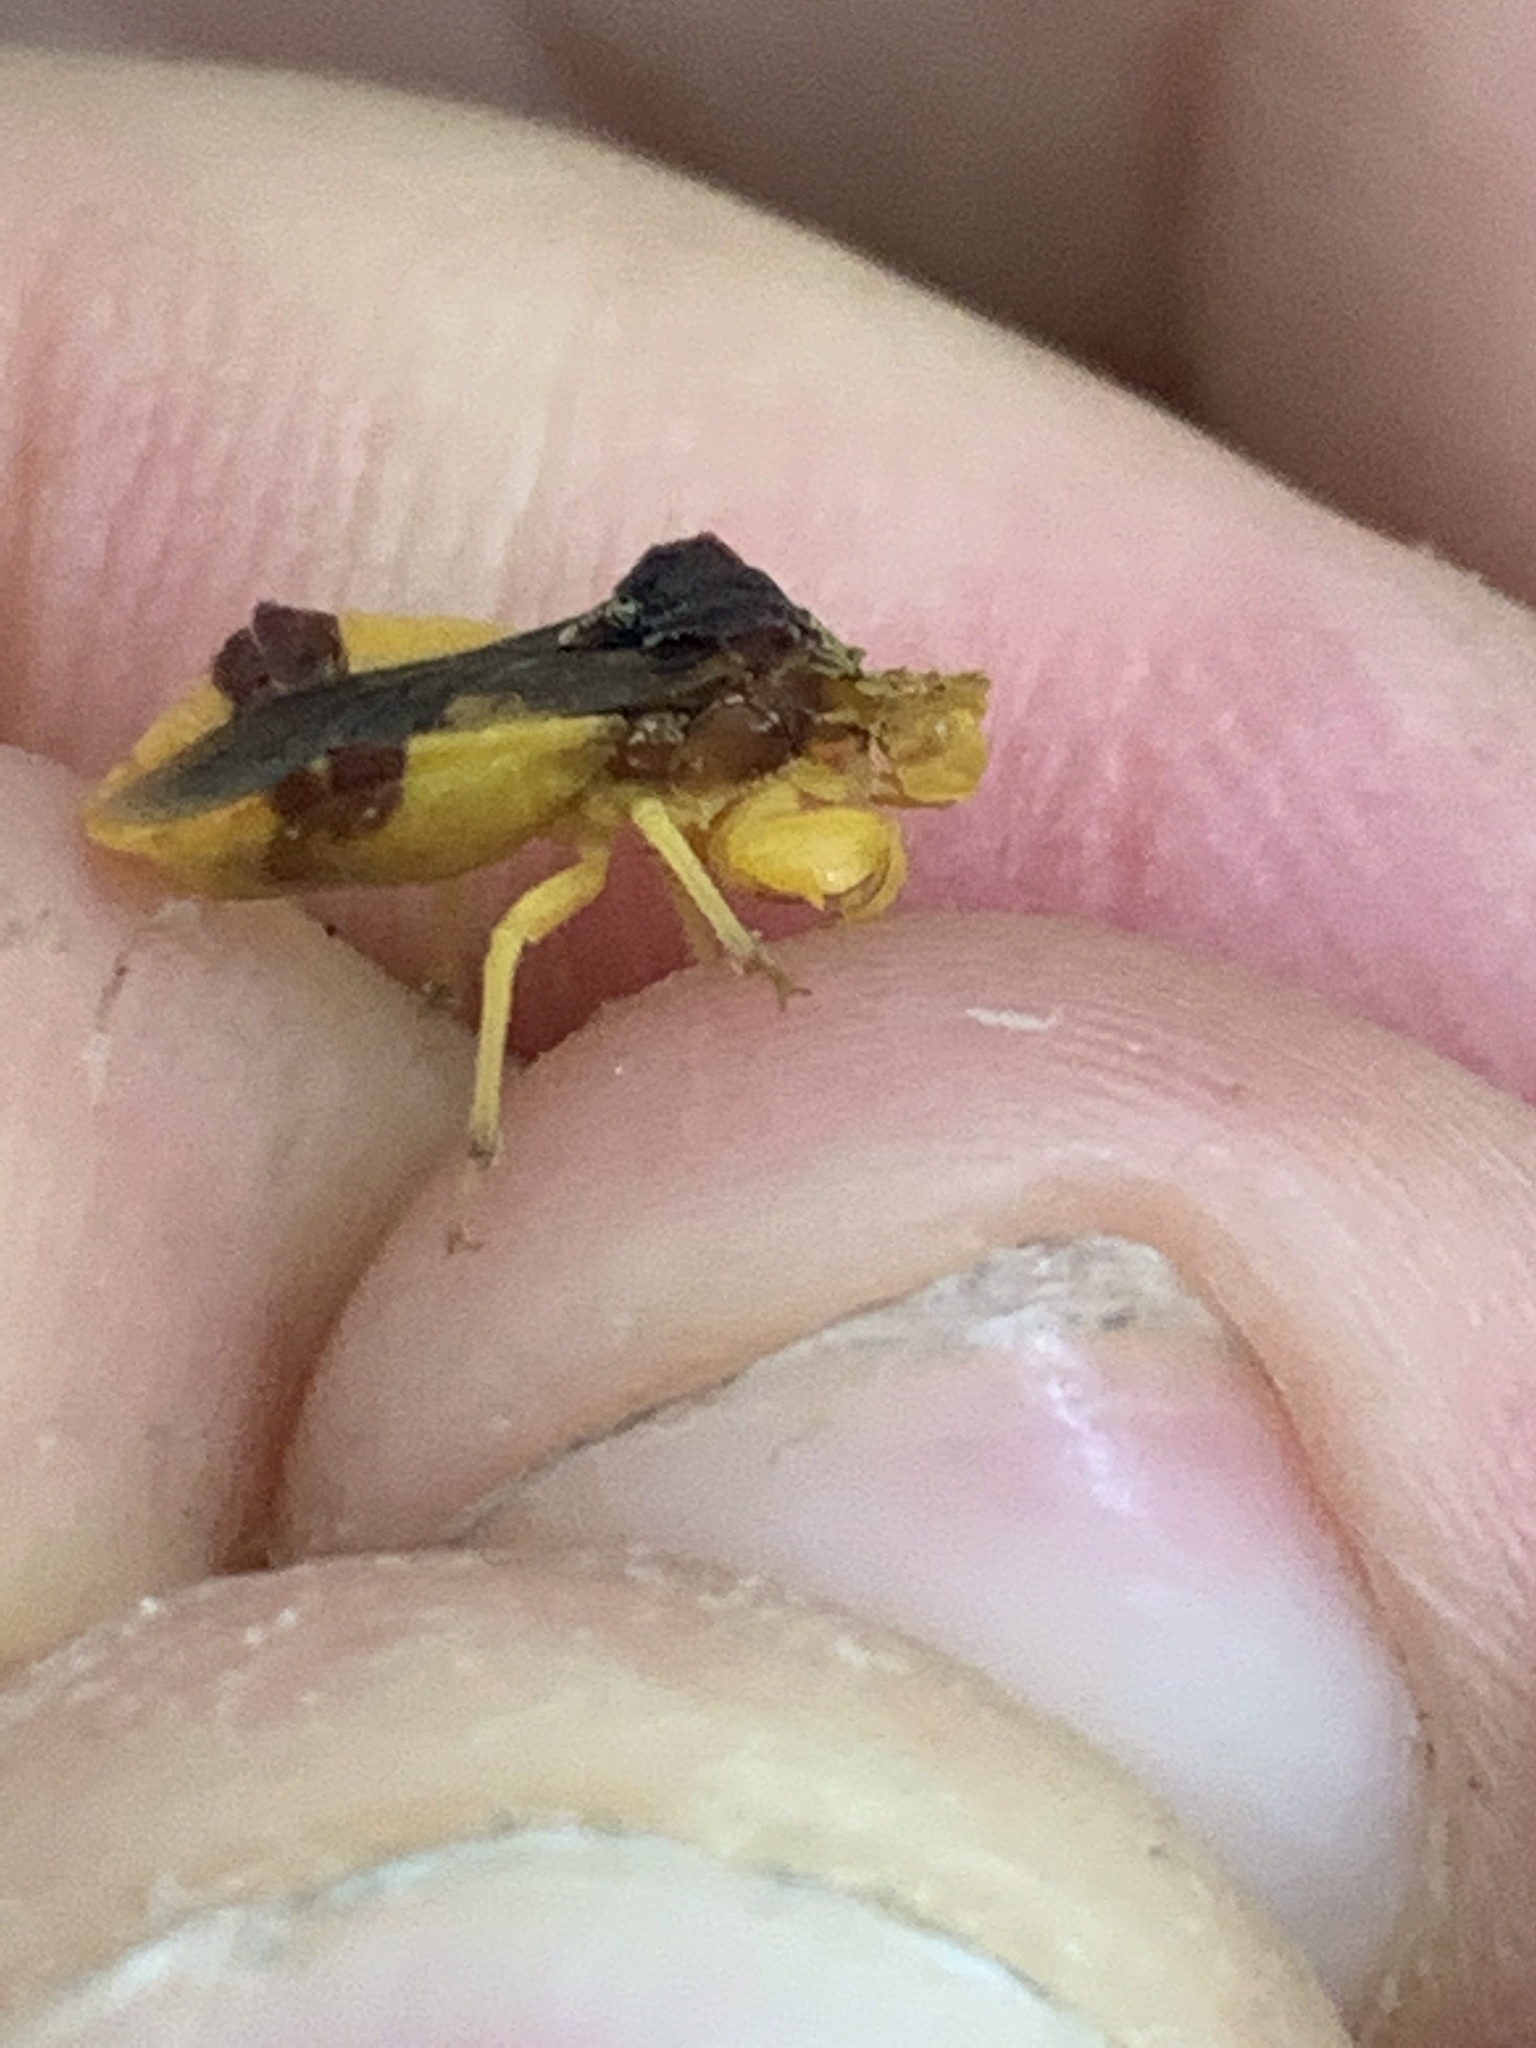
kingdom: Animalia
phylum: Arthropoda
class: Insecta
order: Hemiptera
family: Reduviidae
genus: Phymata
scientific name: Phymata pennsylvanica
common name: Pennsylvania ambush bug
